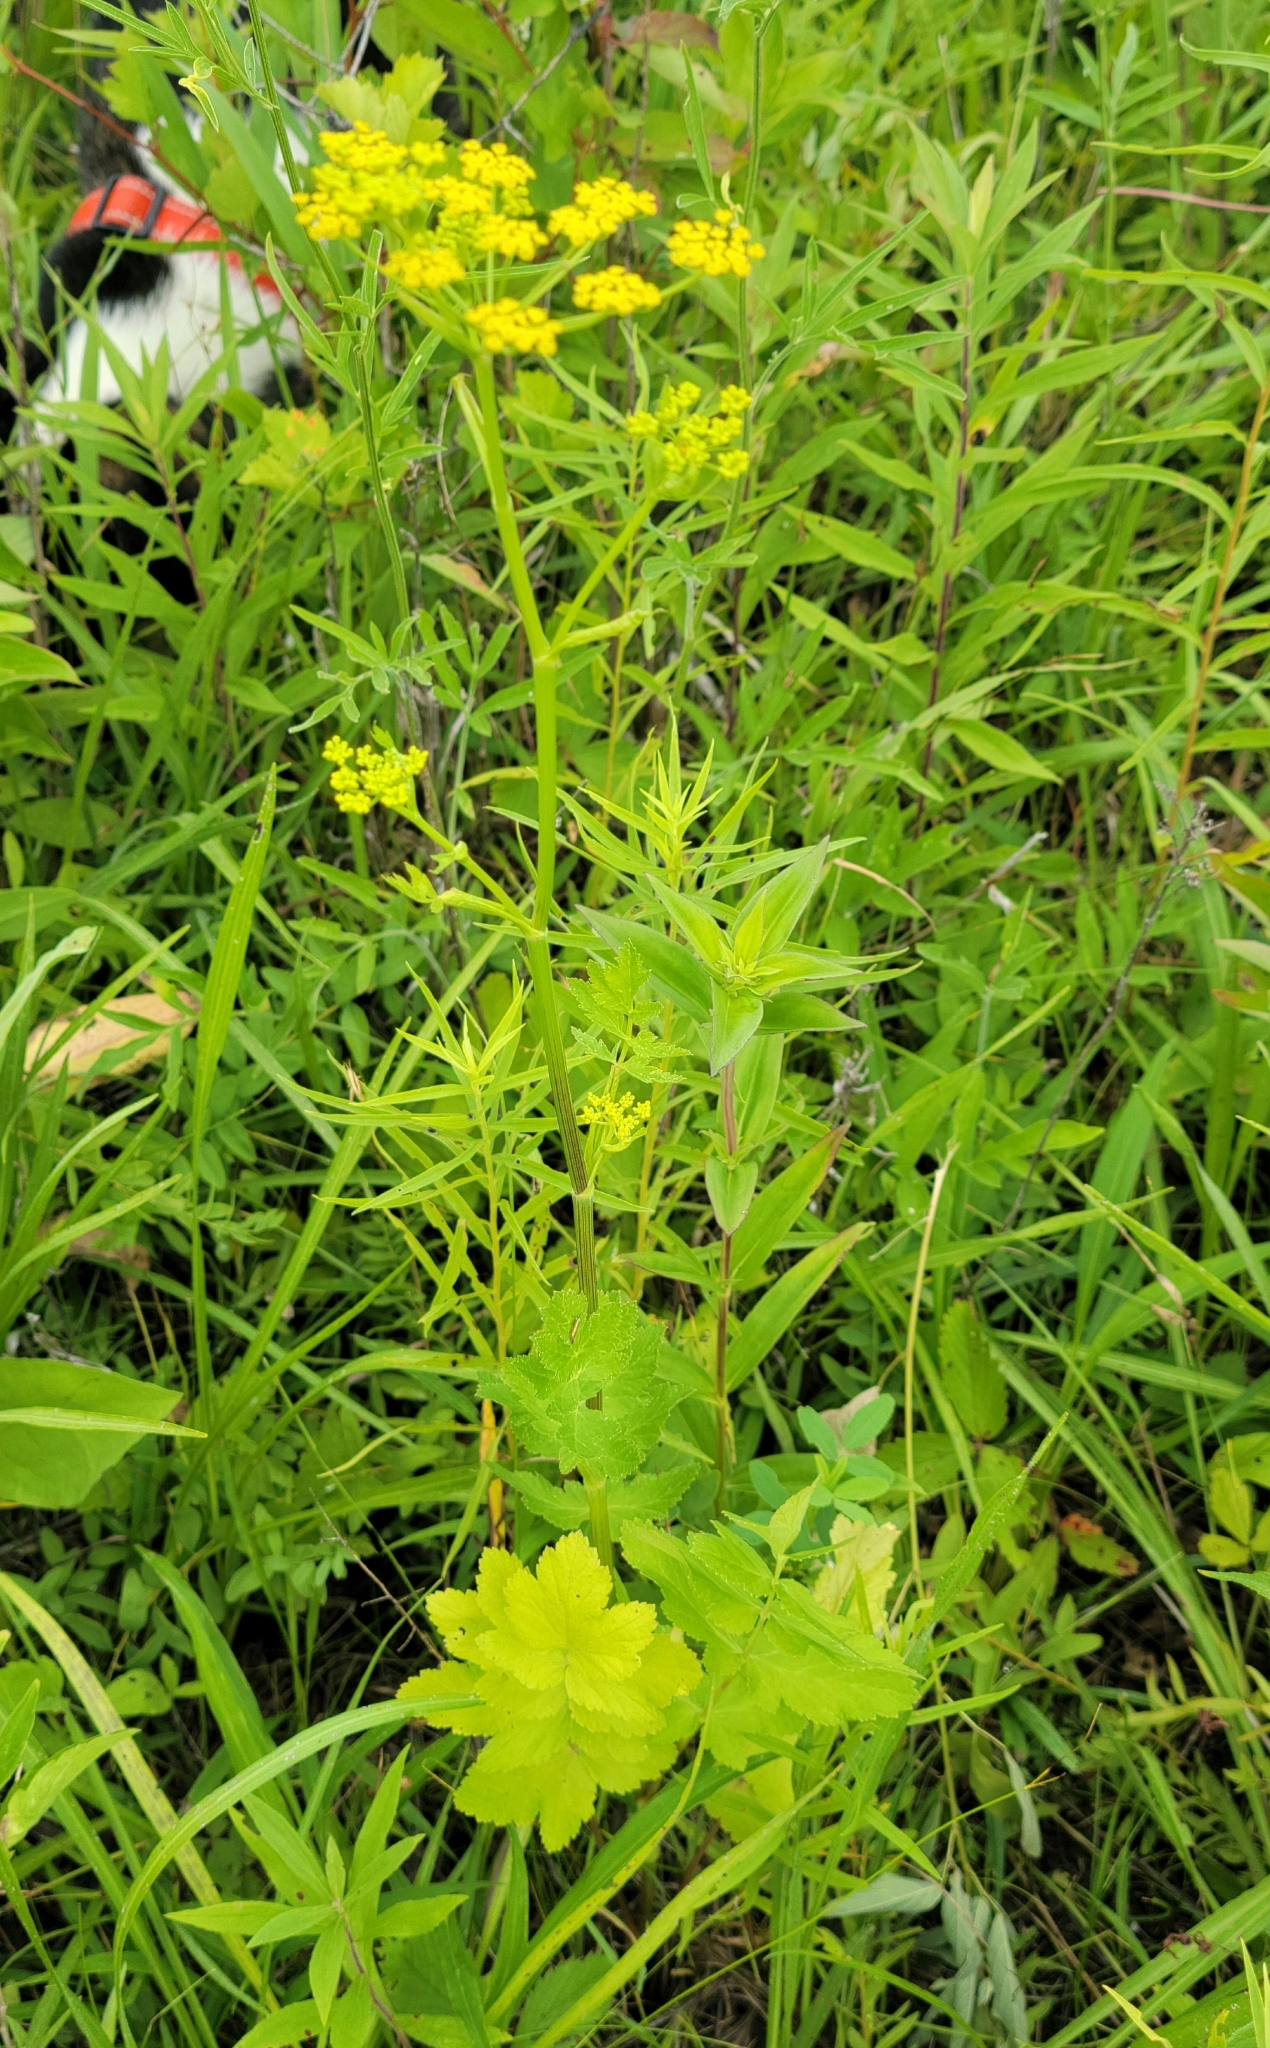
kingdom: Plantae
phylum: Tracheophyta
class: Magnoliopsida
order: Apiales
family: Apiaceae
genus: Pastinaca
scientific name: Pastinaca sativa
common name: Wild parsnip
